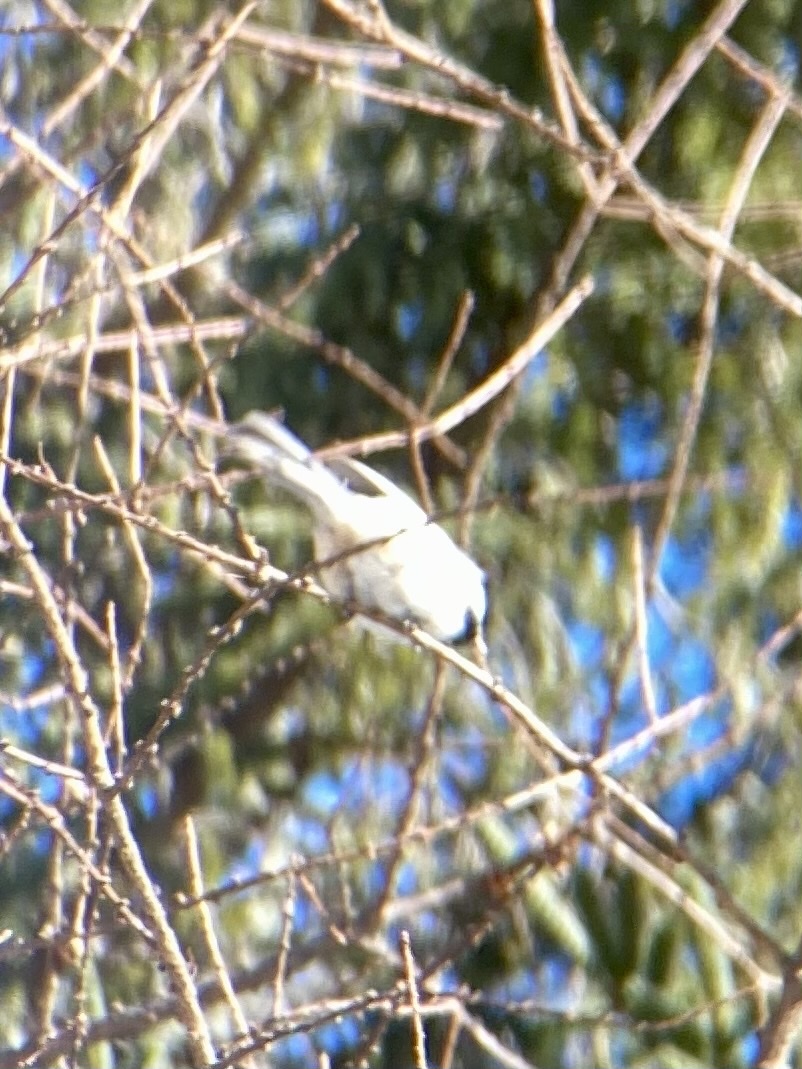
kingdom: Animalia
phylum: Chordata
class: Aves
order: Passeriformes
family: Paridae
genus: Poecile
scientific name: Poecile atricapillus
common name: Black-capped chickadee
